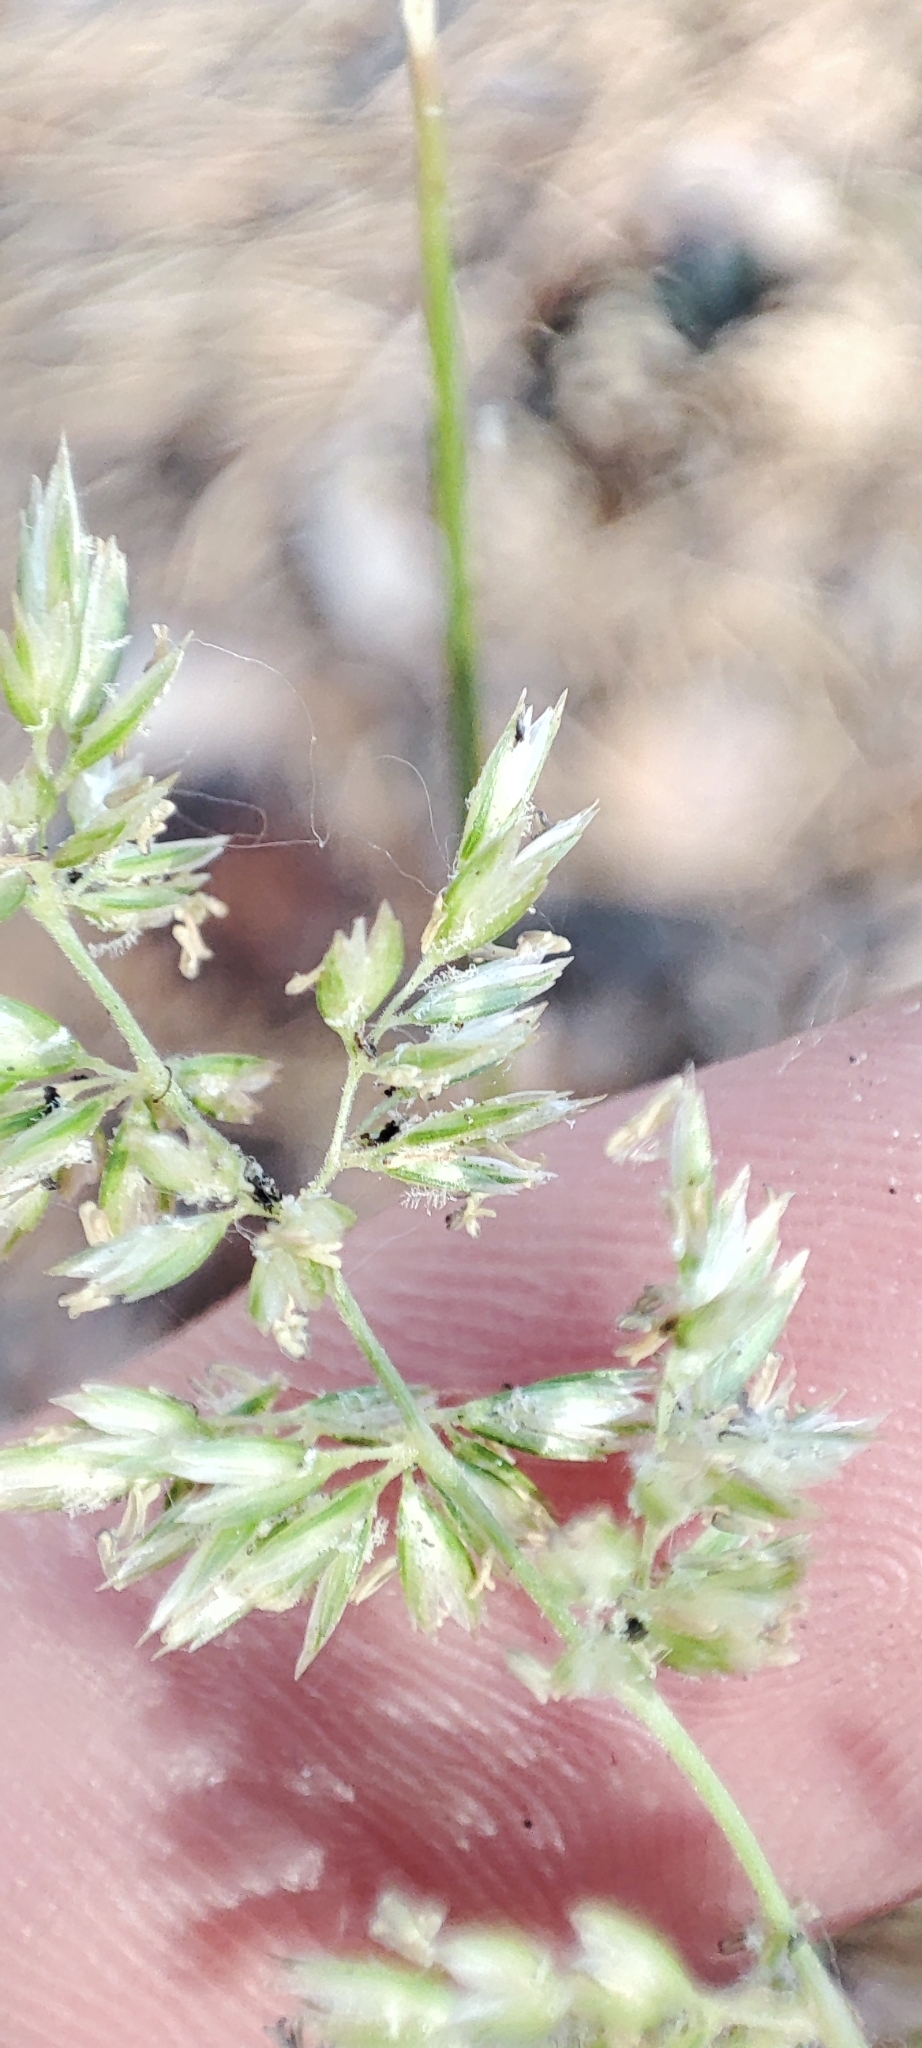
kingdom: Plantae
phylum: Tracheophyta
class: Liliopsida
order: Poales
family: Poaceae
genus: Koeleria
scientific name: Koeleria glauca
